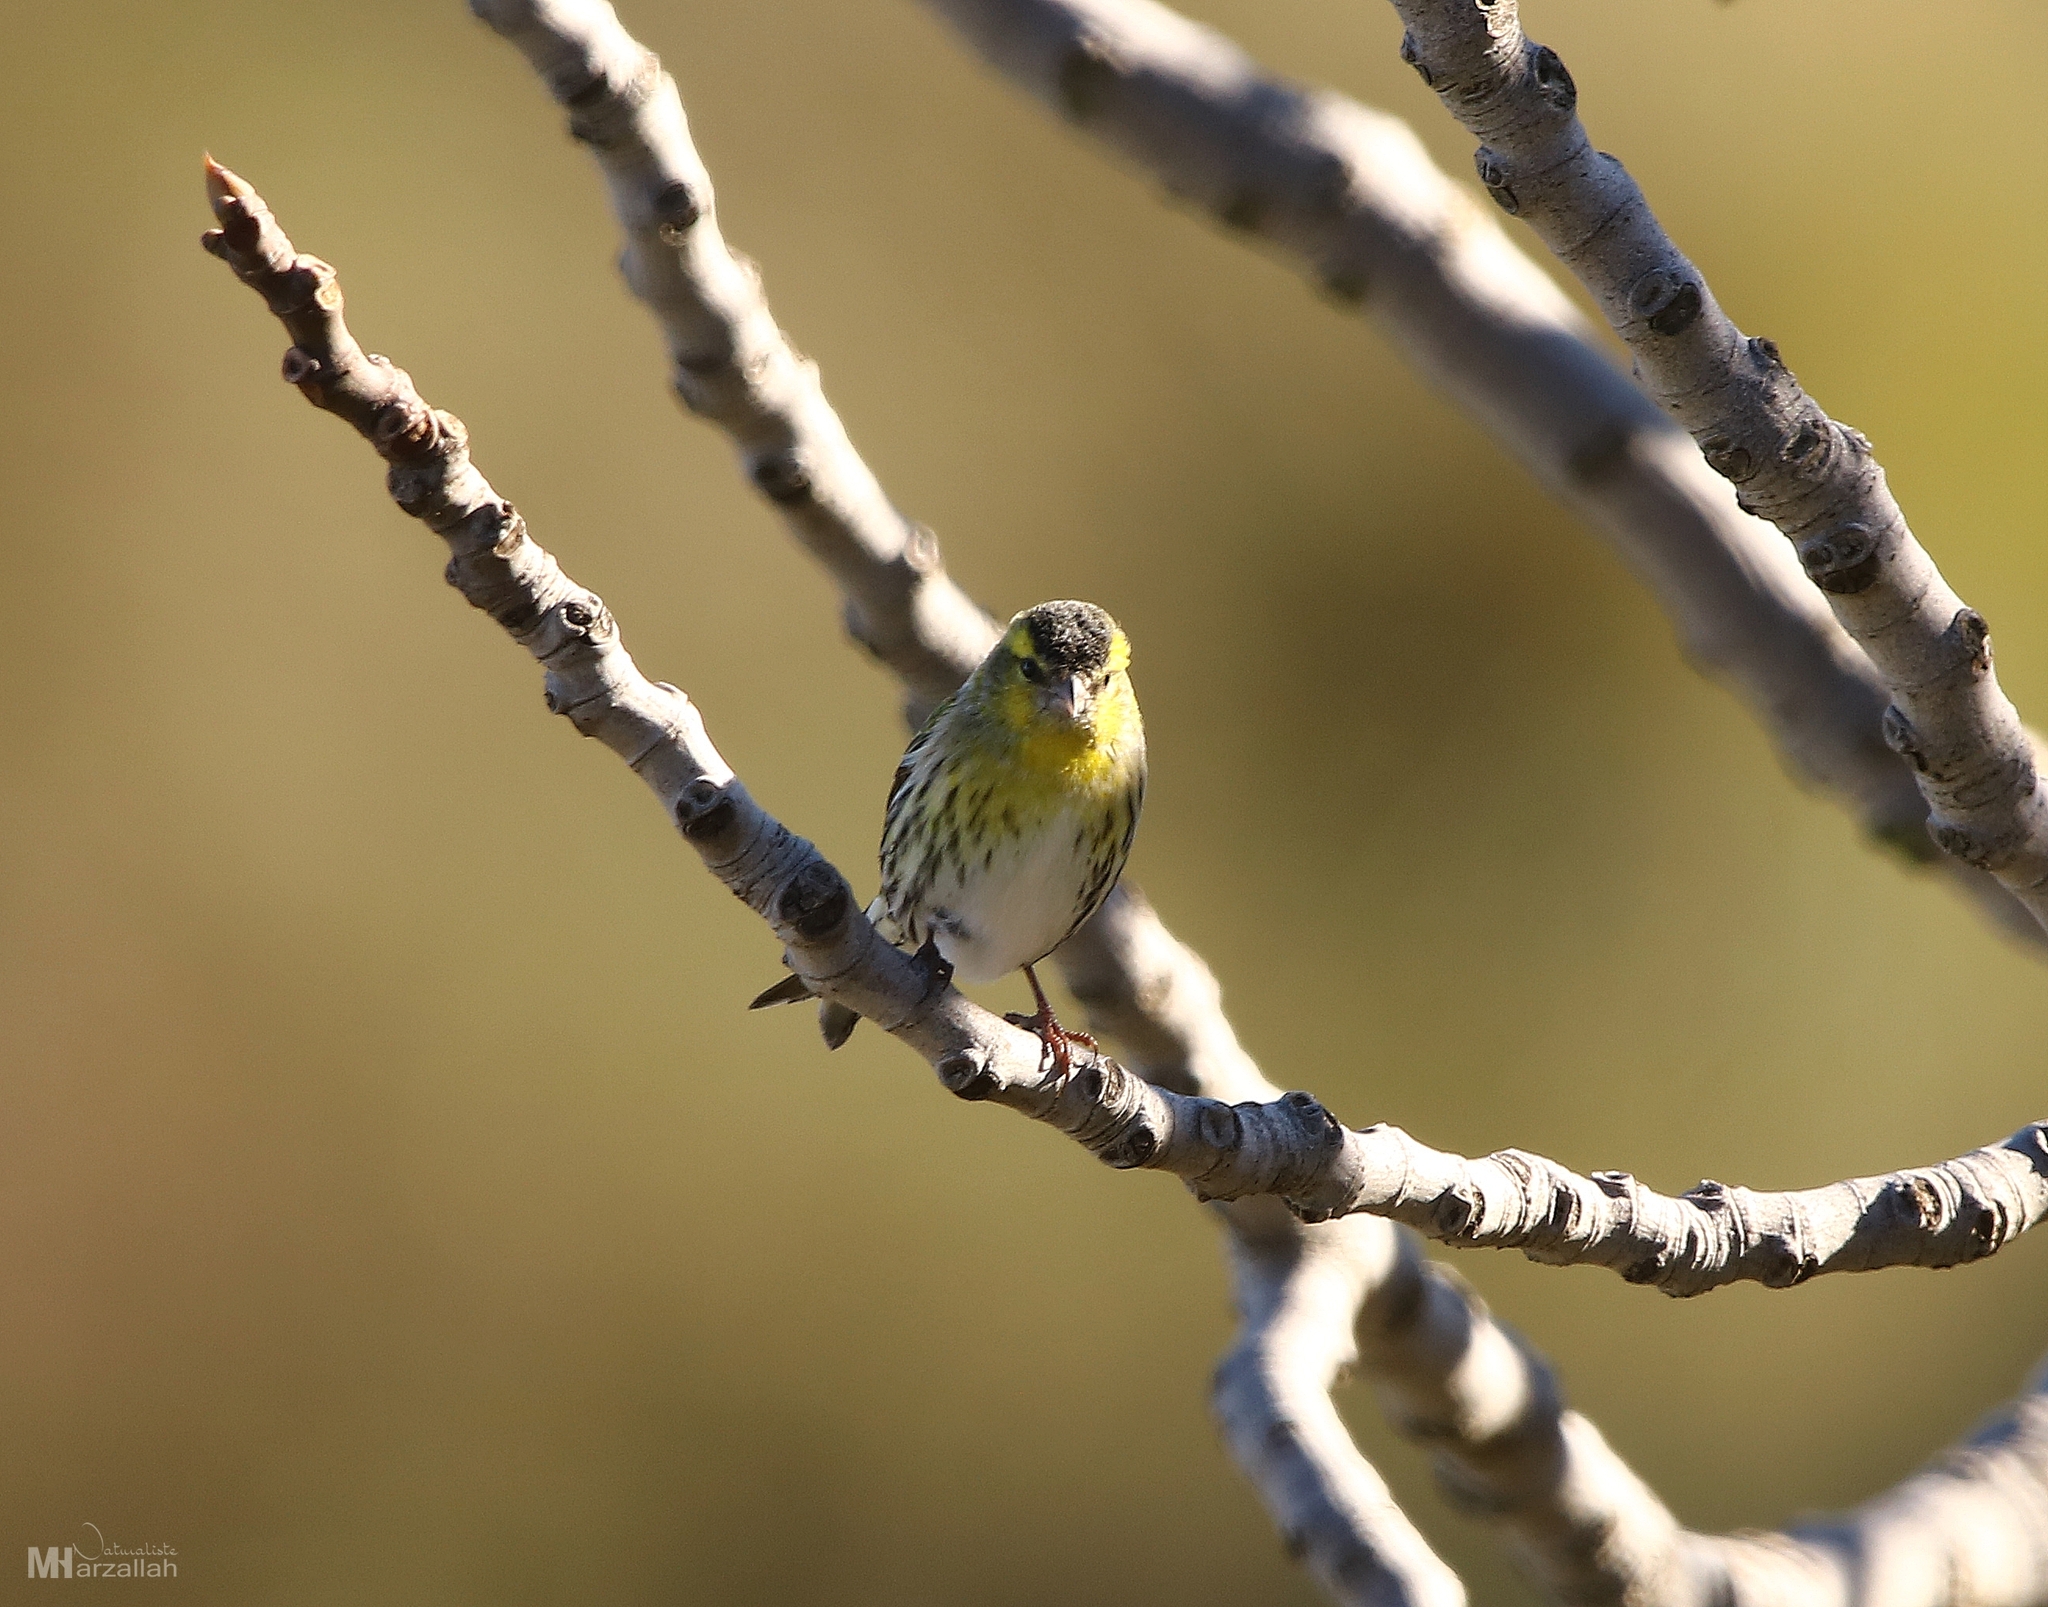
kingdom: Animalia
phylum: Chordata
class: Aves
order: Passeriformes
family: Fringillidae
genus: Spinus
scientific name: Spinus spinus
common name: Eurasian siskin
